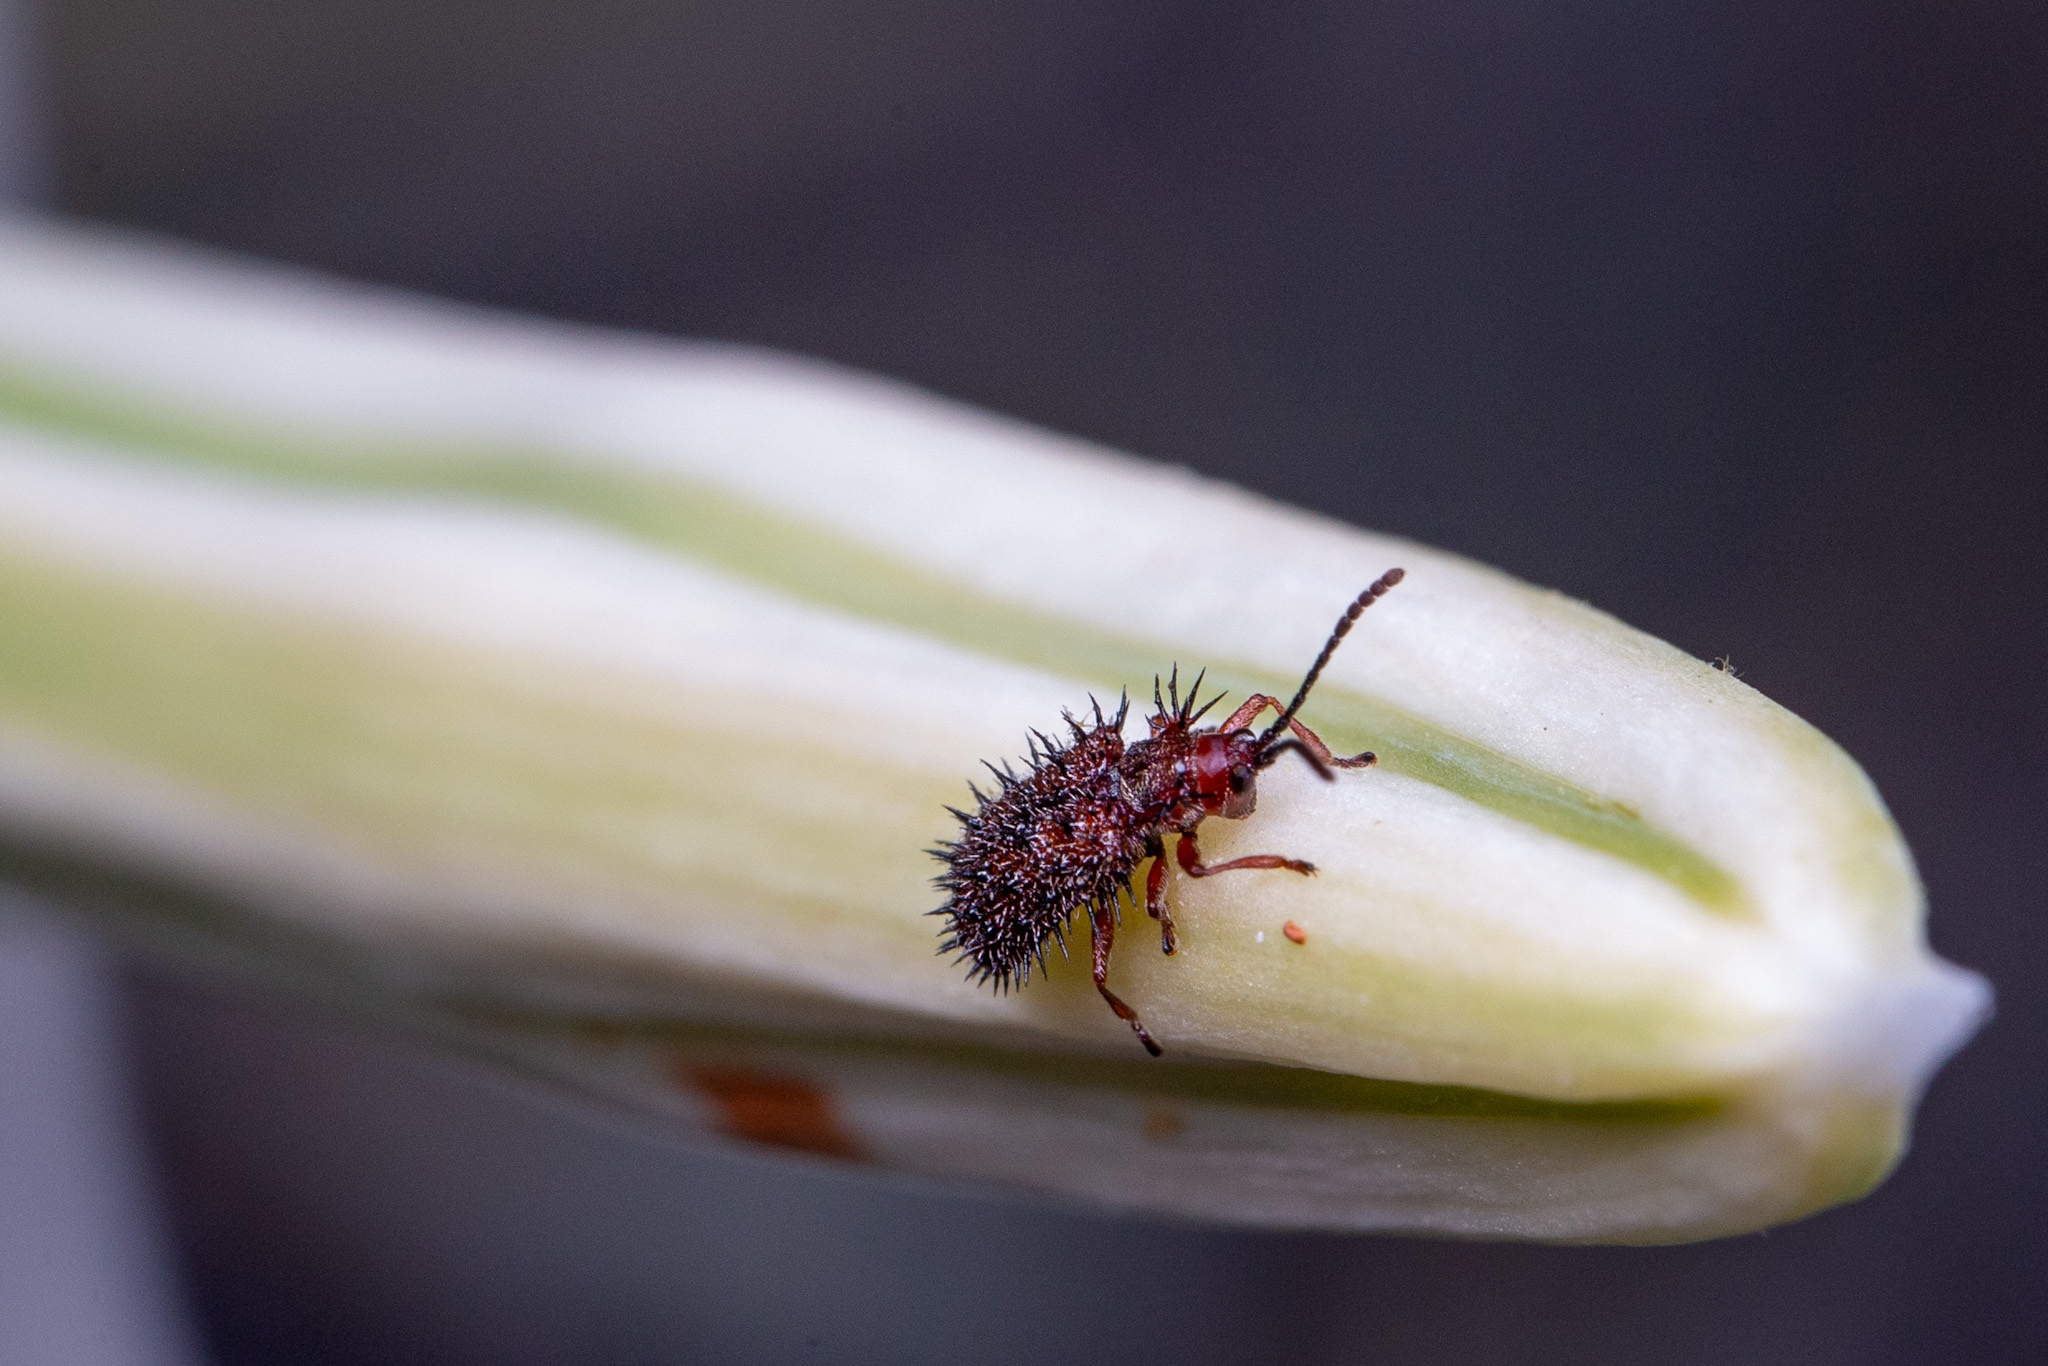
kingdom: Animalia
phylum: Arthropoda
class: Insecta
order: Coleoptera
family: Chrysomelidae
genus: Dicladispa
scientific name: Dicladispa testacea
